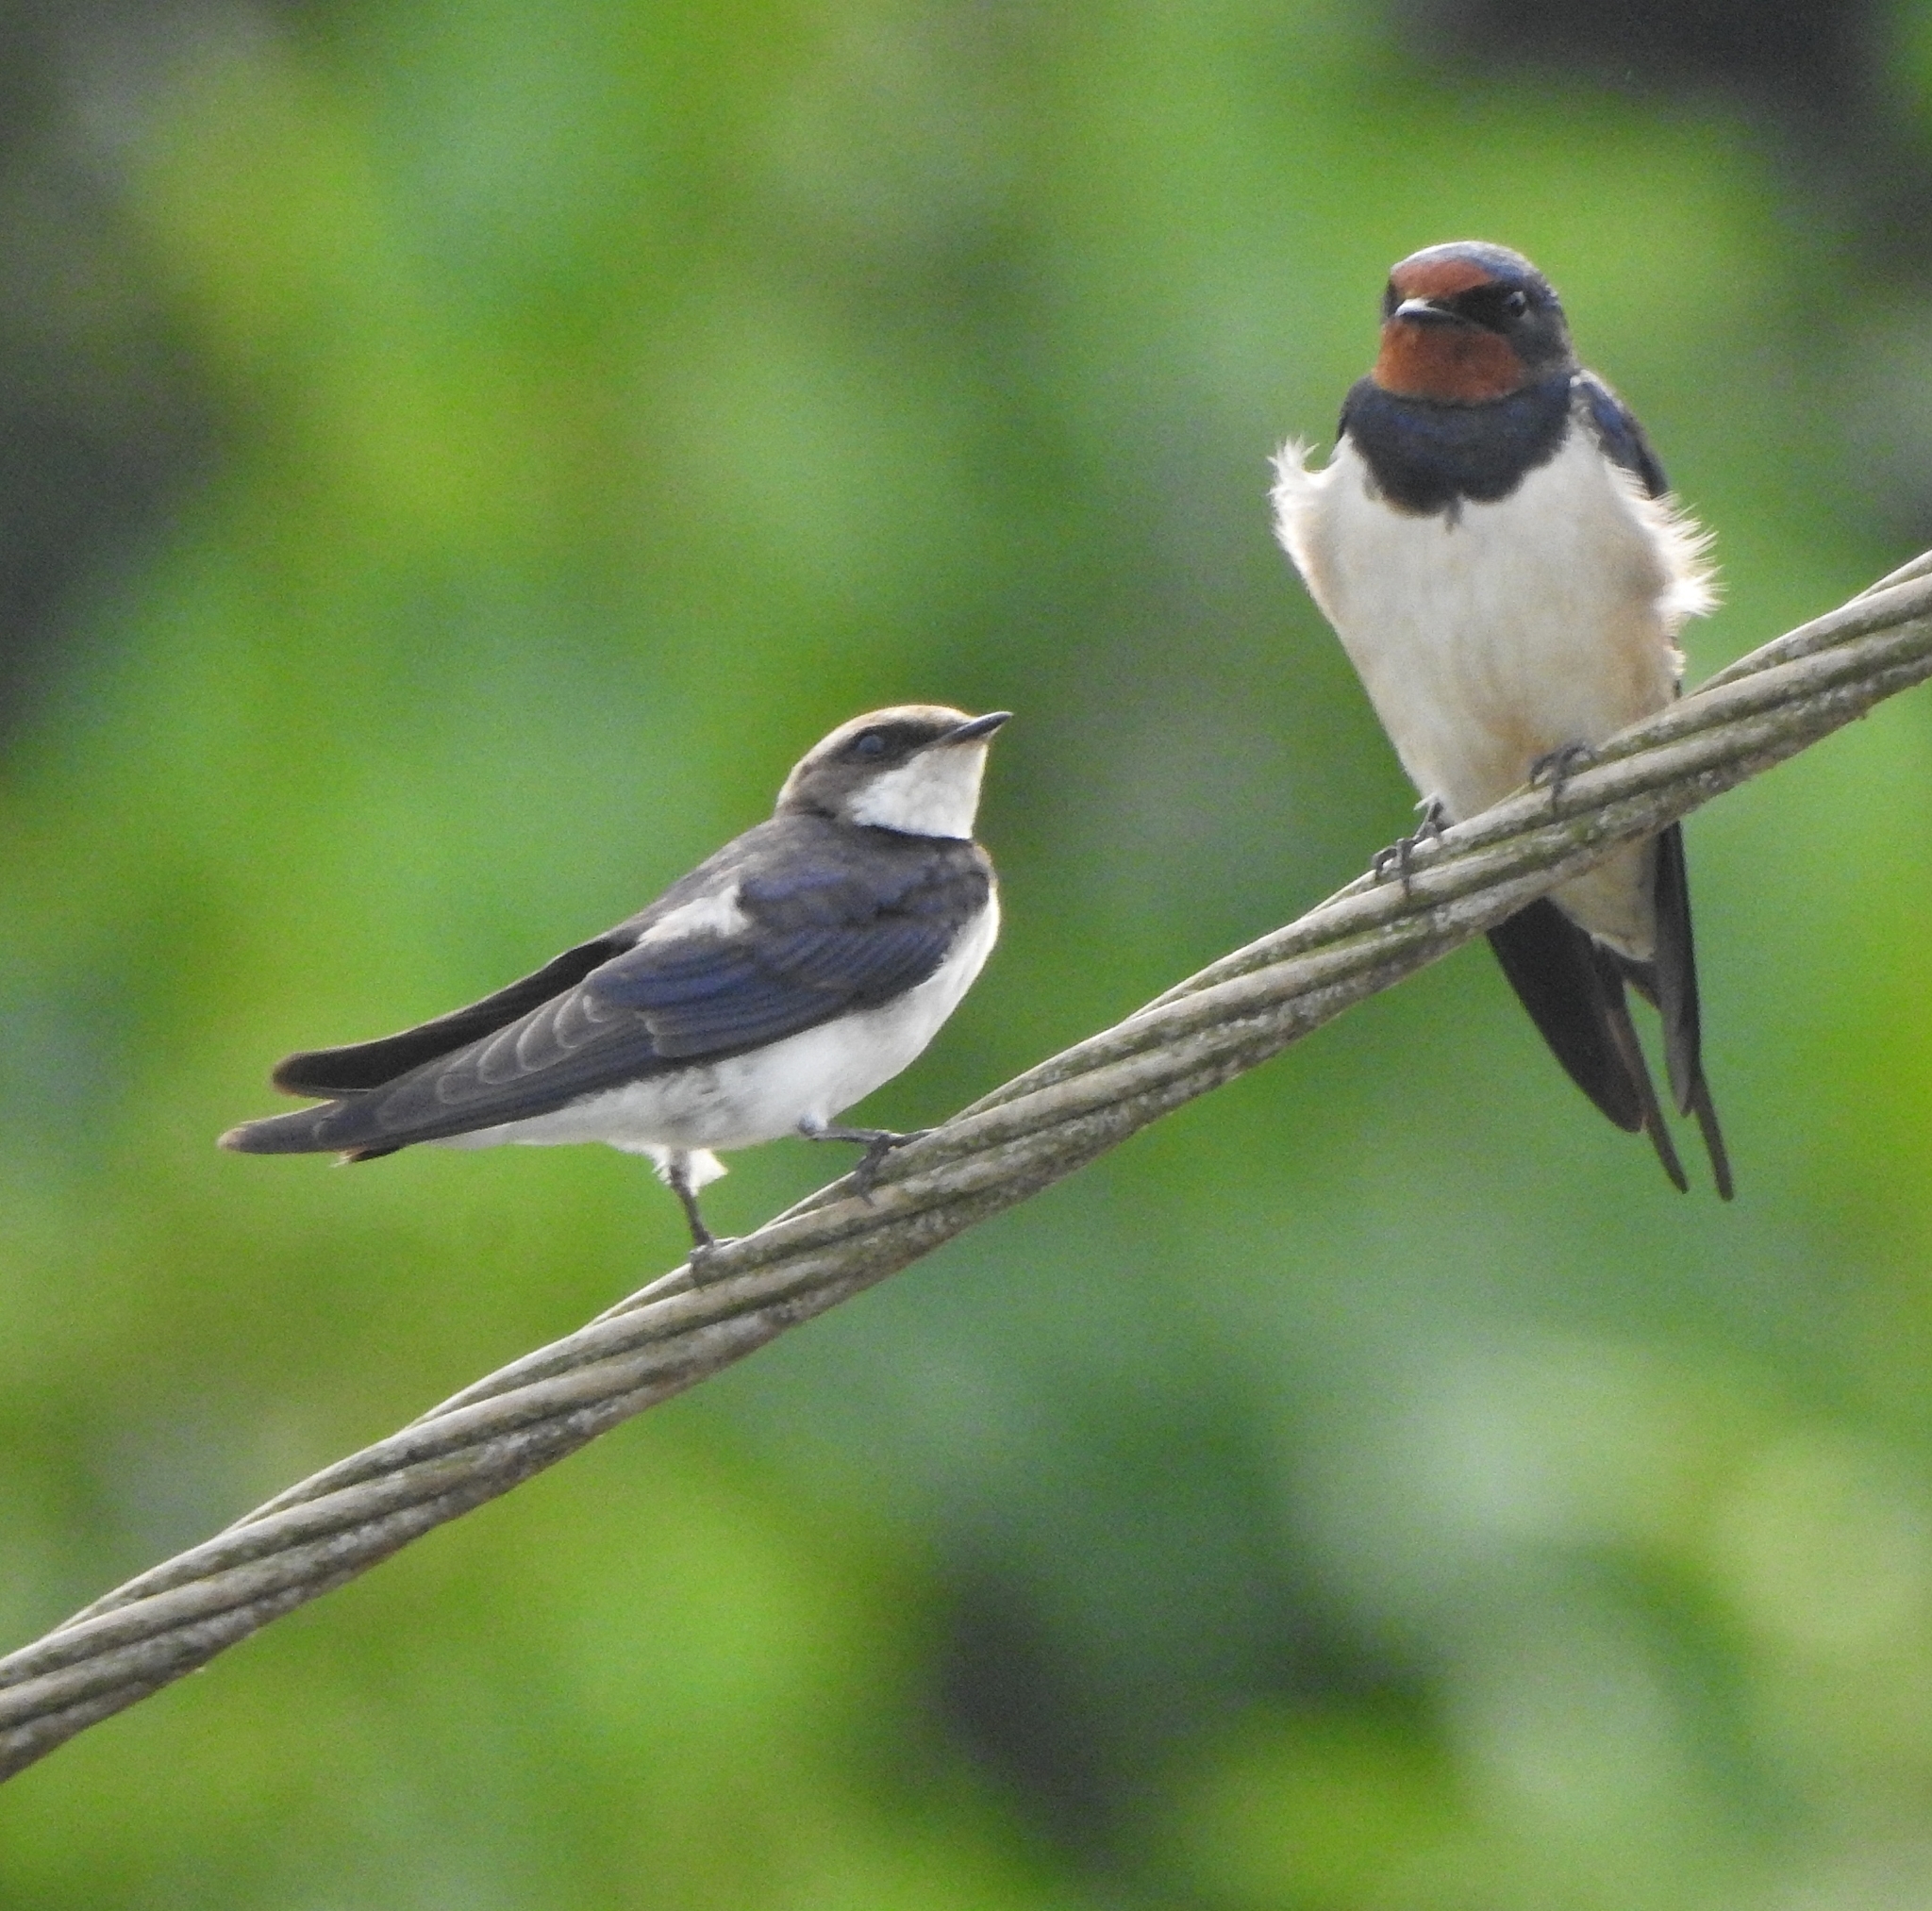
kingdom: Animalia
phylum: Chordata
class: Aves
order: Passeriformes
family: Hirundinidae
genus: Hirundo
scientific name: Hirundo smithii
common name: Wire-tailed swallow
